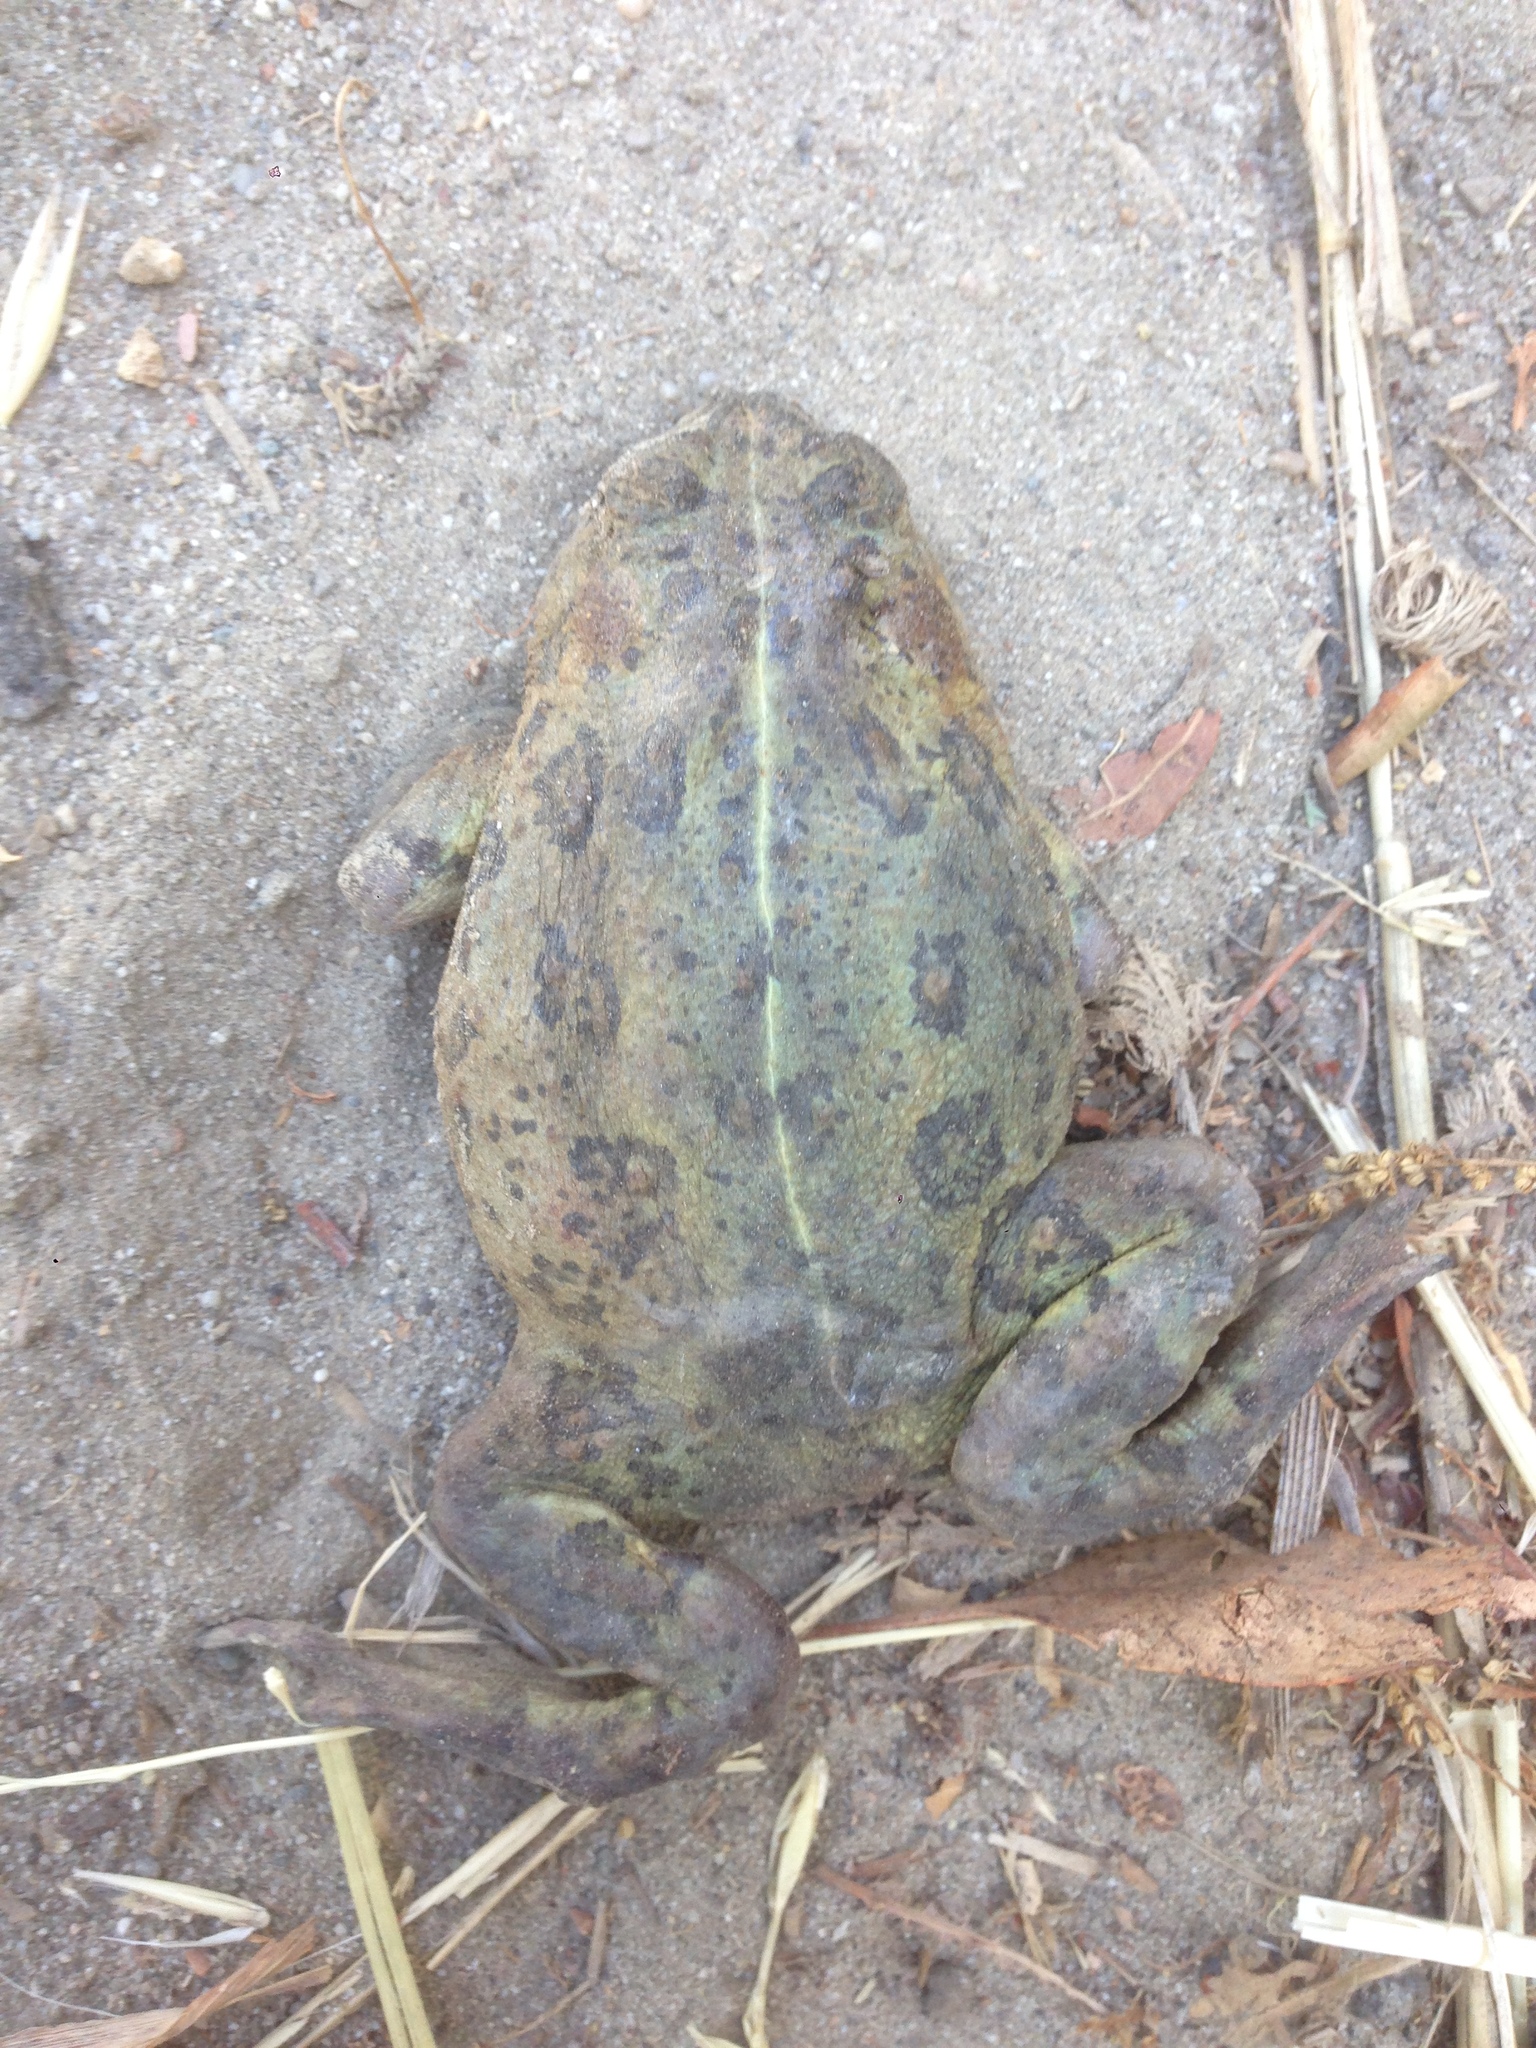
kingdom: Animalia
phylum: Chordata
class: Amphibia
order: Anura
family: Bufonidae
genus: Anaxyrus
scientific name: Anaxyrus boreas
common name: Western toad
